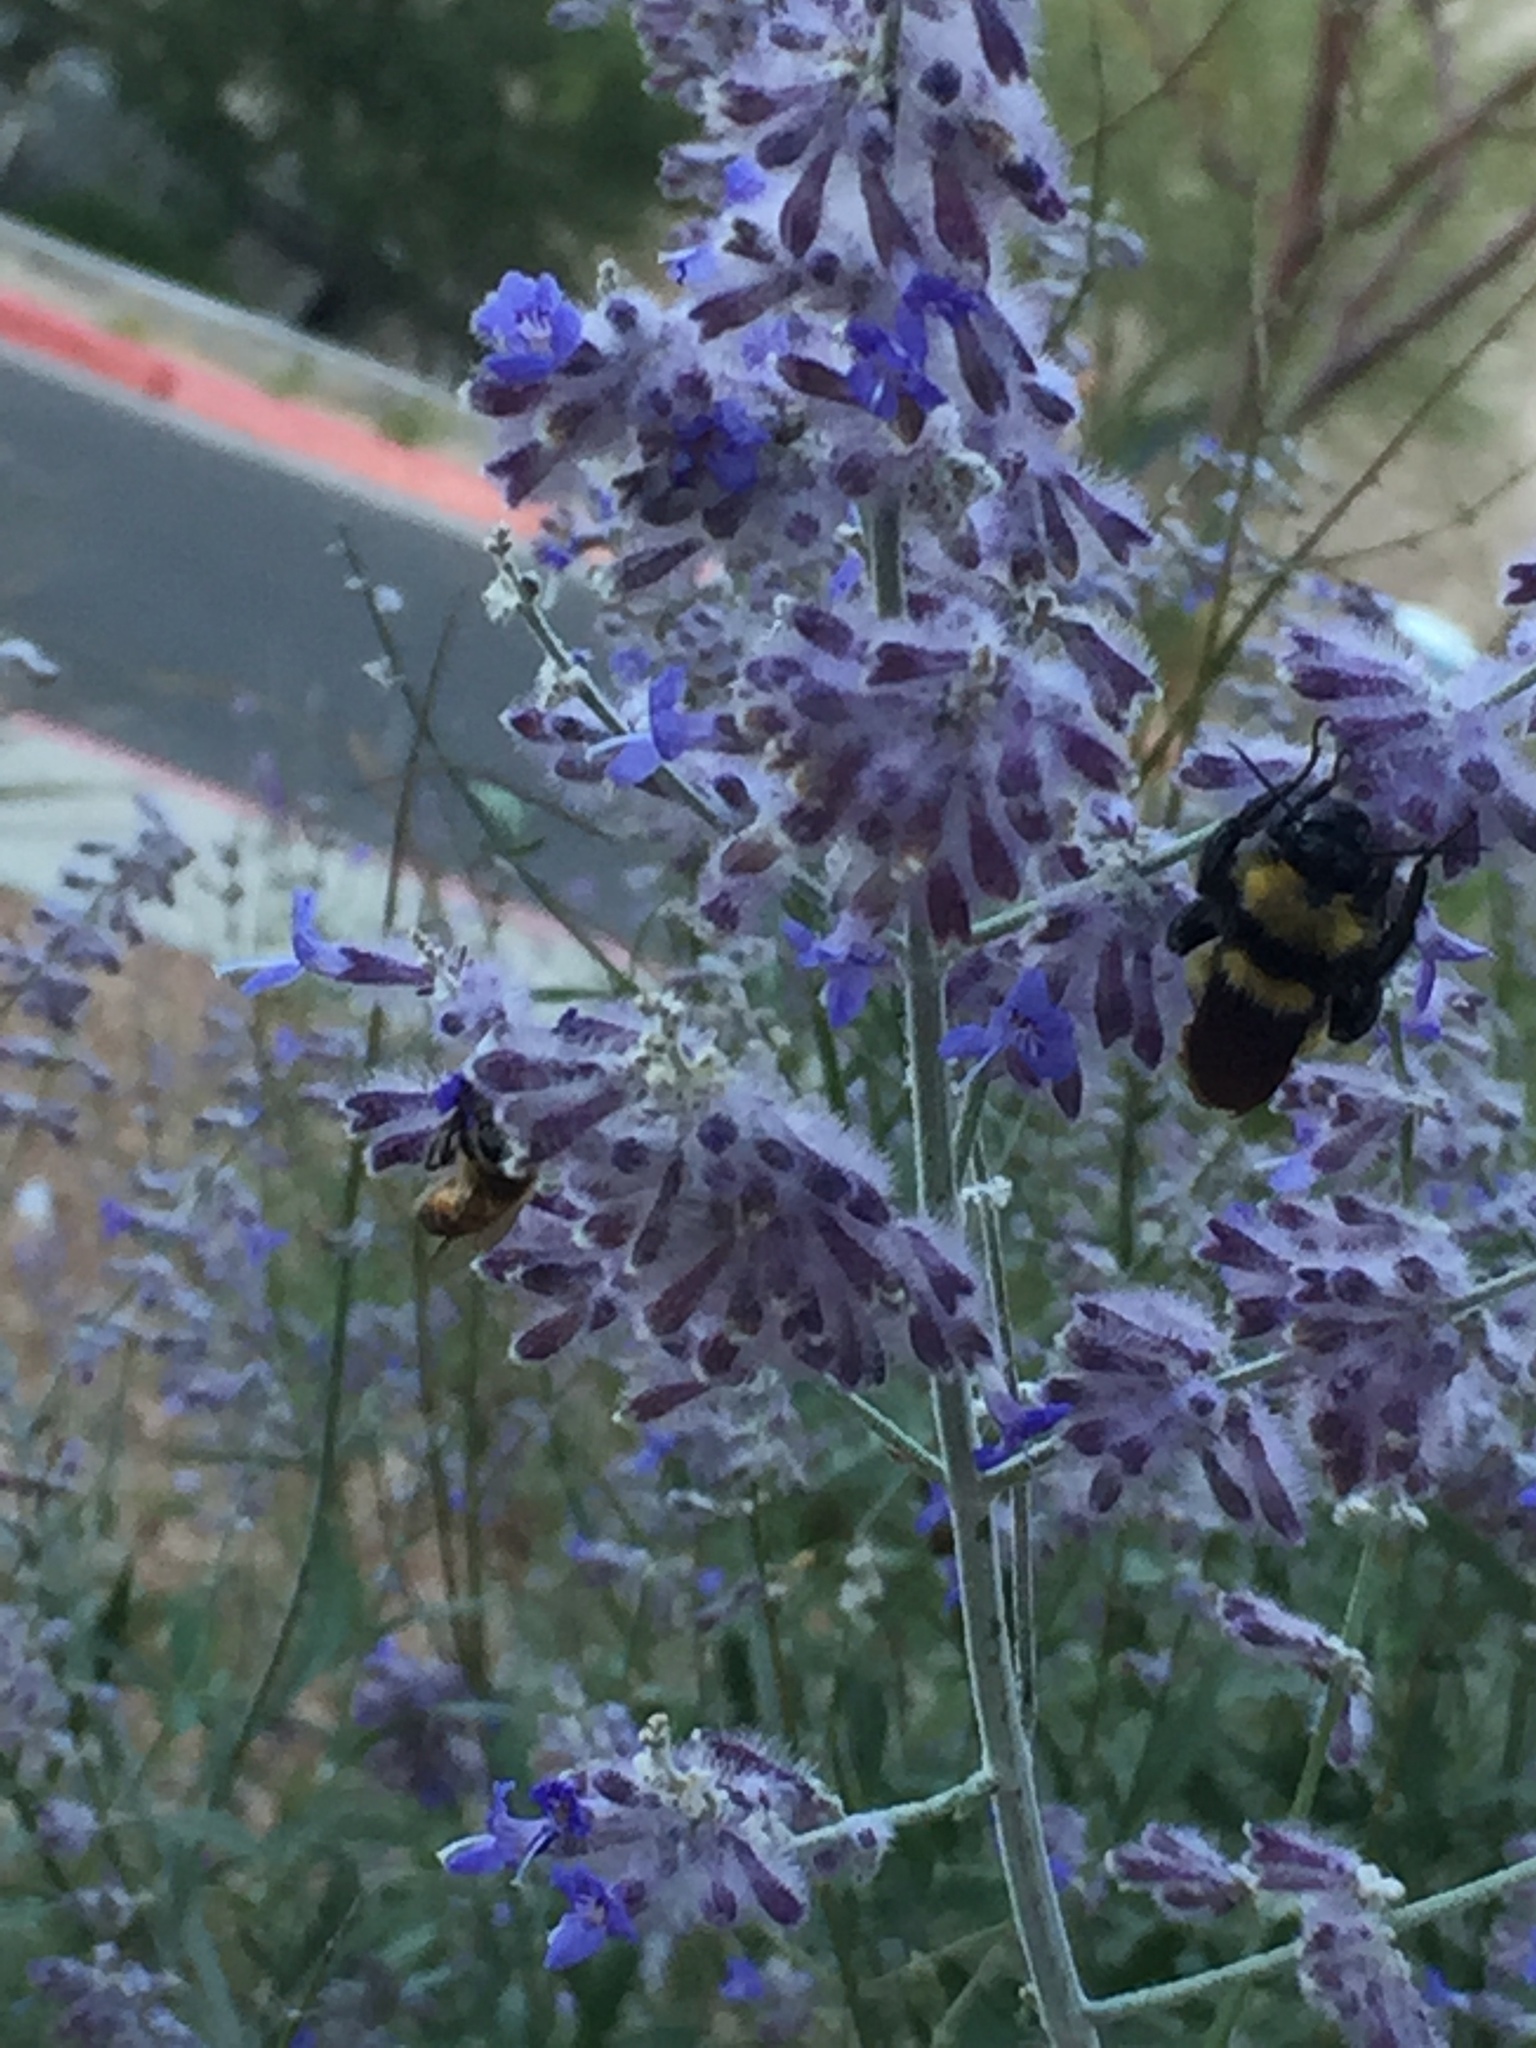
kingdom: Animalia
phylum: Arthropoda
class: Insecta
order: Hymenoptera
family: Apidae
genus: Bombus
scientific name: Bombus sonorus
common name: Sonoran bumble bee
